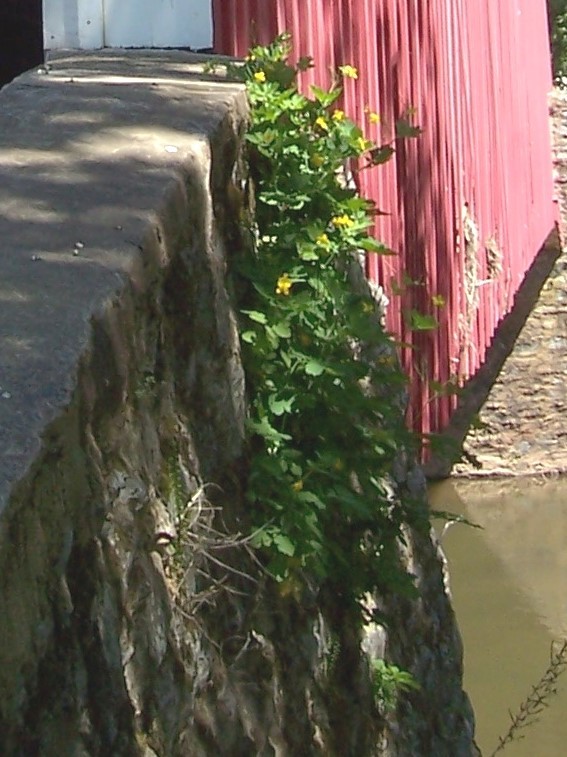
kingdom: Plantae
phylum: Tracheophyta
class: Magnoliopsida
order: Ranunculales
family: Papaveraceae
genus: Chelidonium
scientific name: Chelidonium majus
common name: Greater celandine
